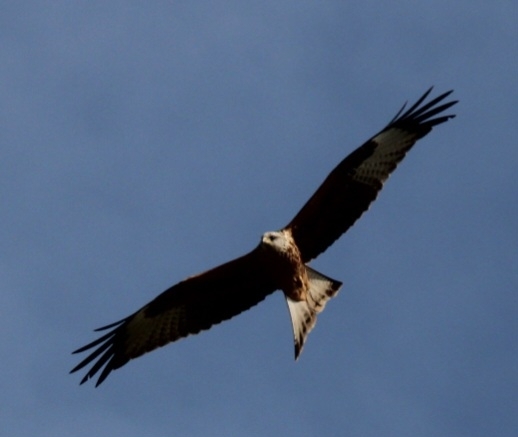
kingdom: Animalia
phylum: Chordata
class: Aves
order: Accipitriformes
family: Accipitridae
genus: Milvus
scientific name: Milvus milvus
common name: Red kite
